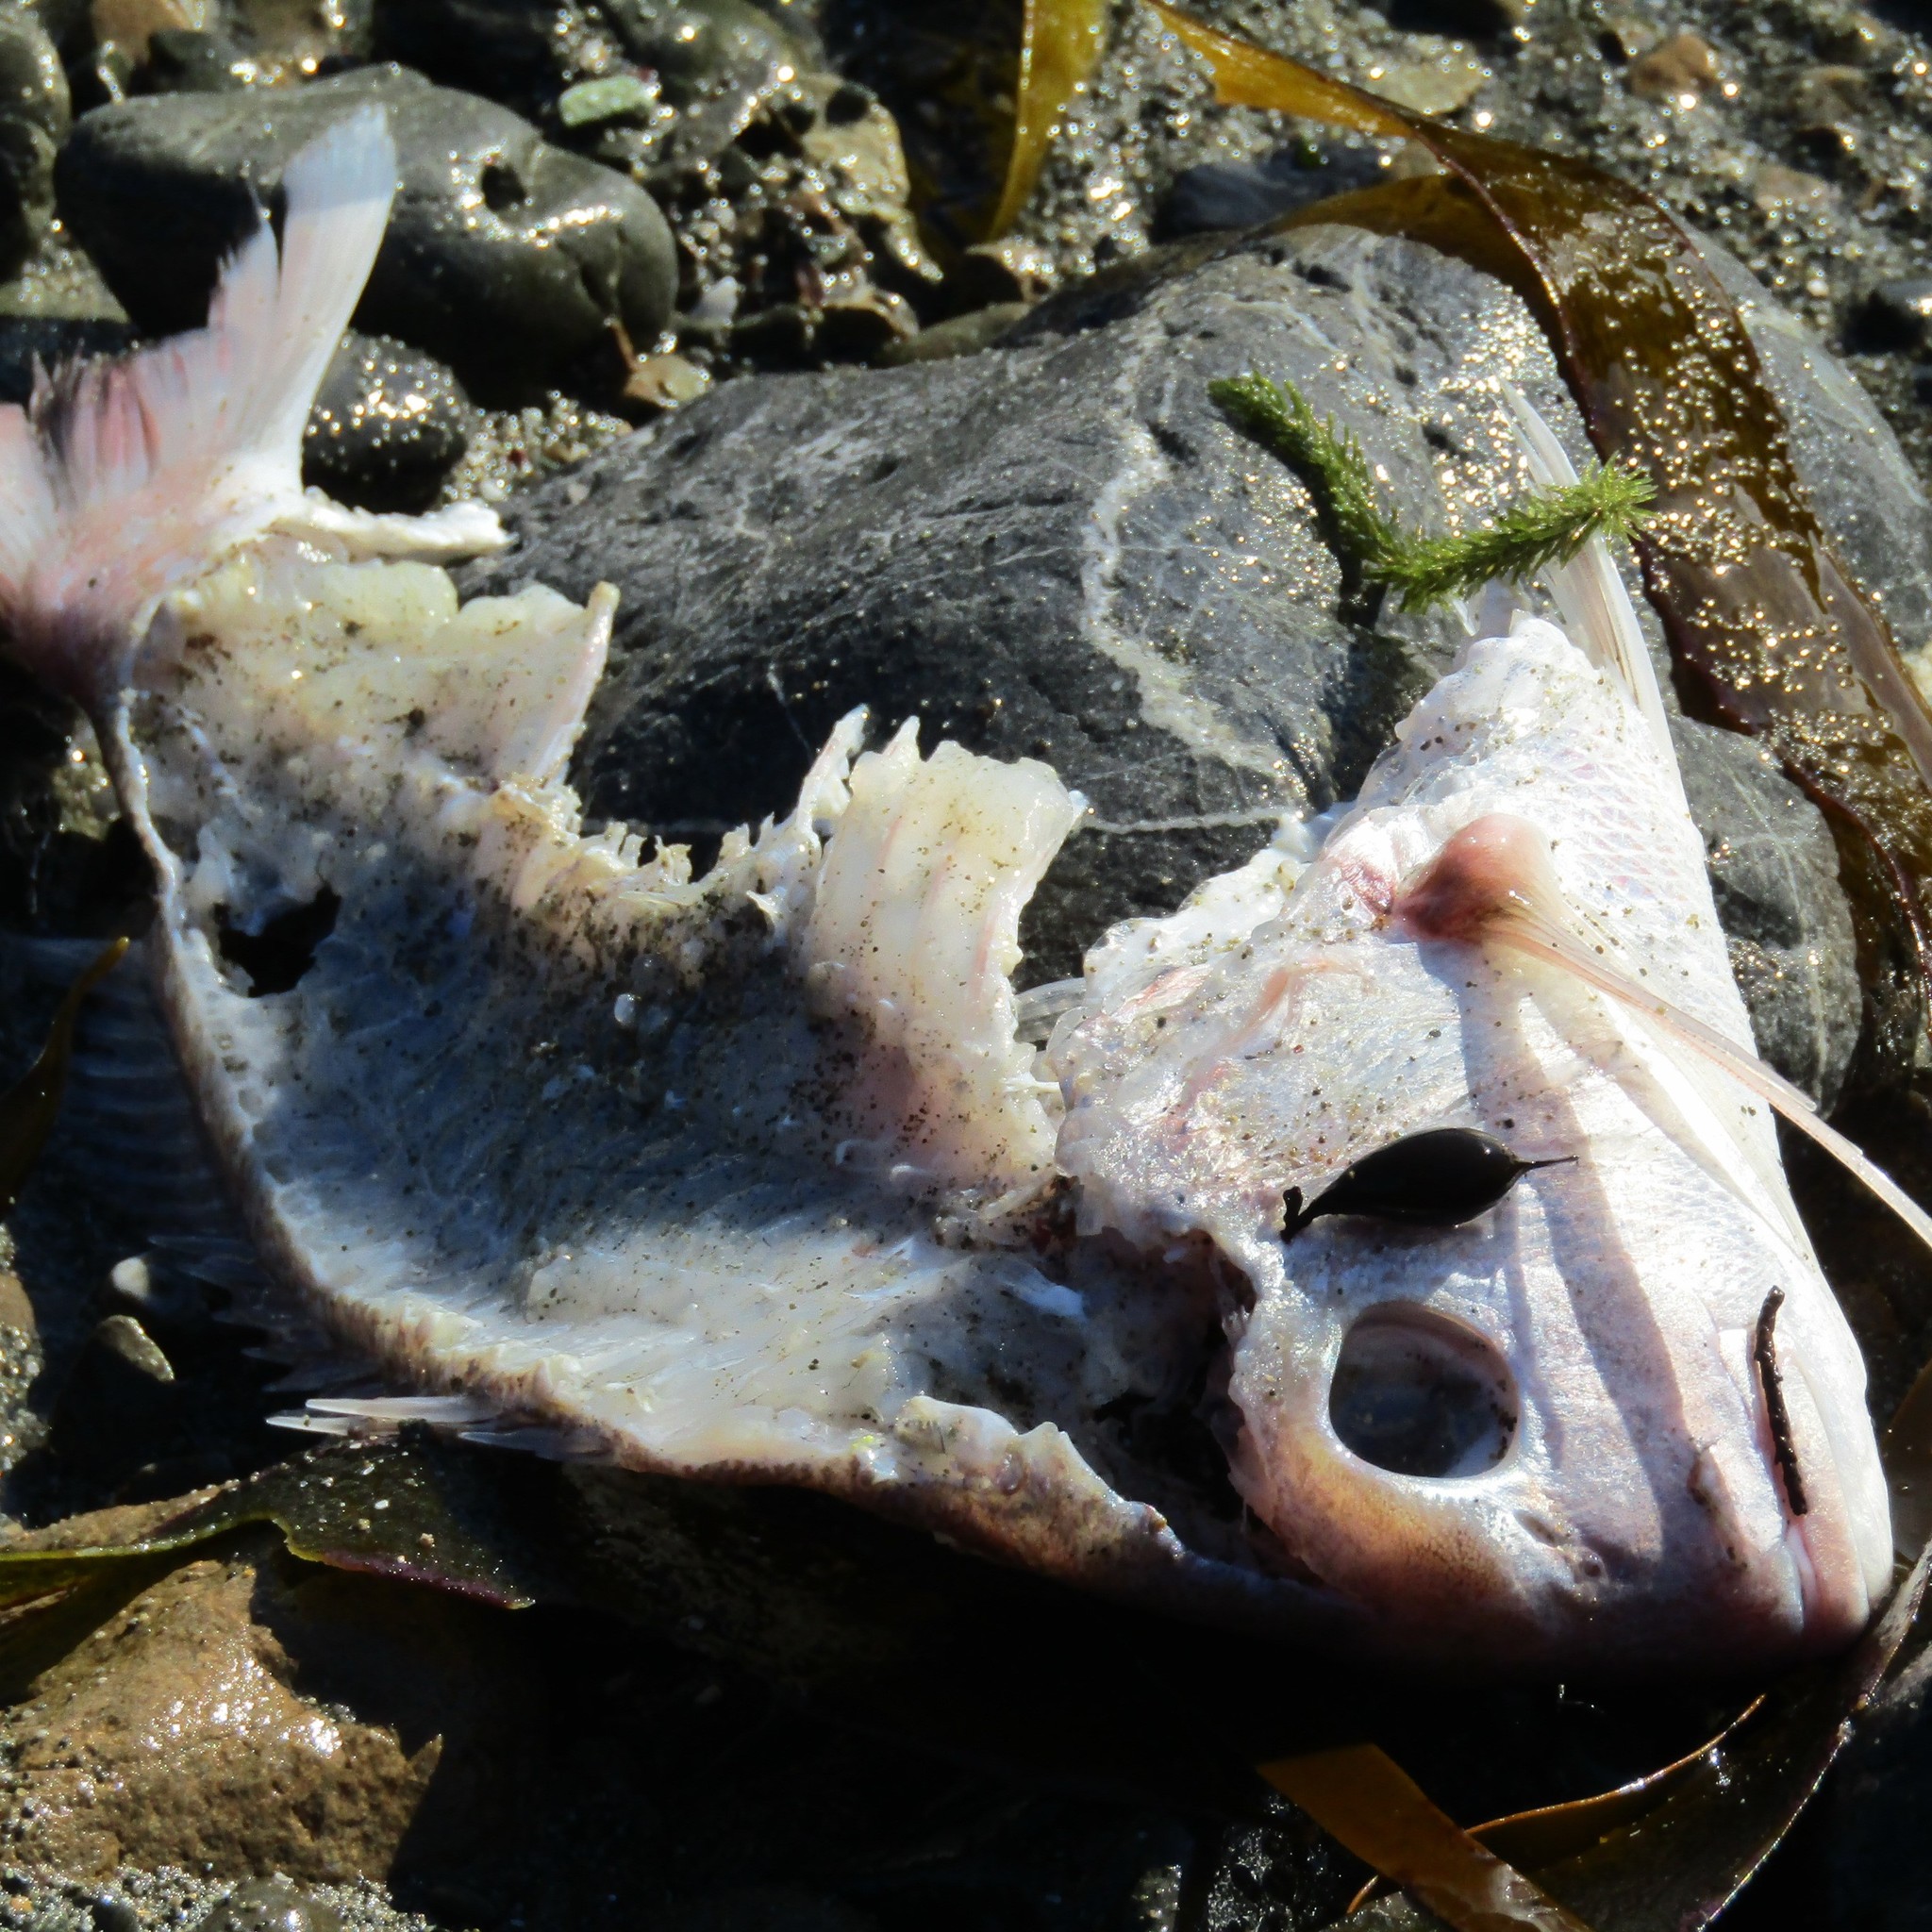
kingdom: Animalia
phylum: Chordata
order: Perciformes
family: Sparidae
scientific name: Sparidae
